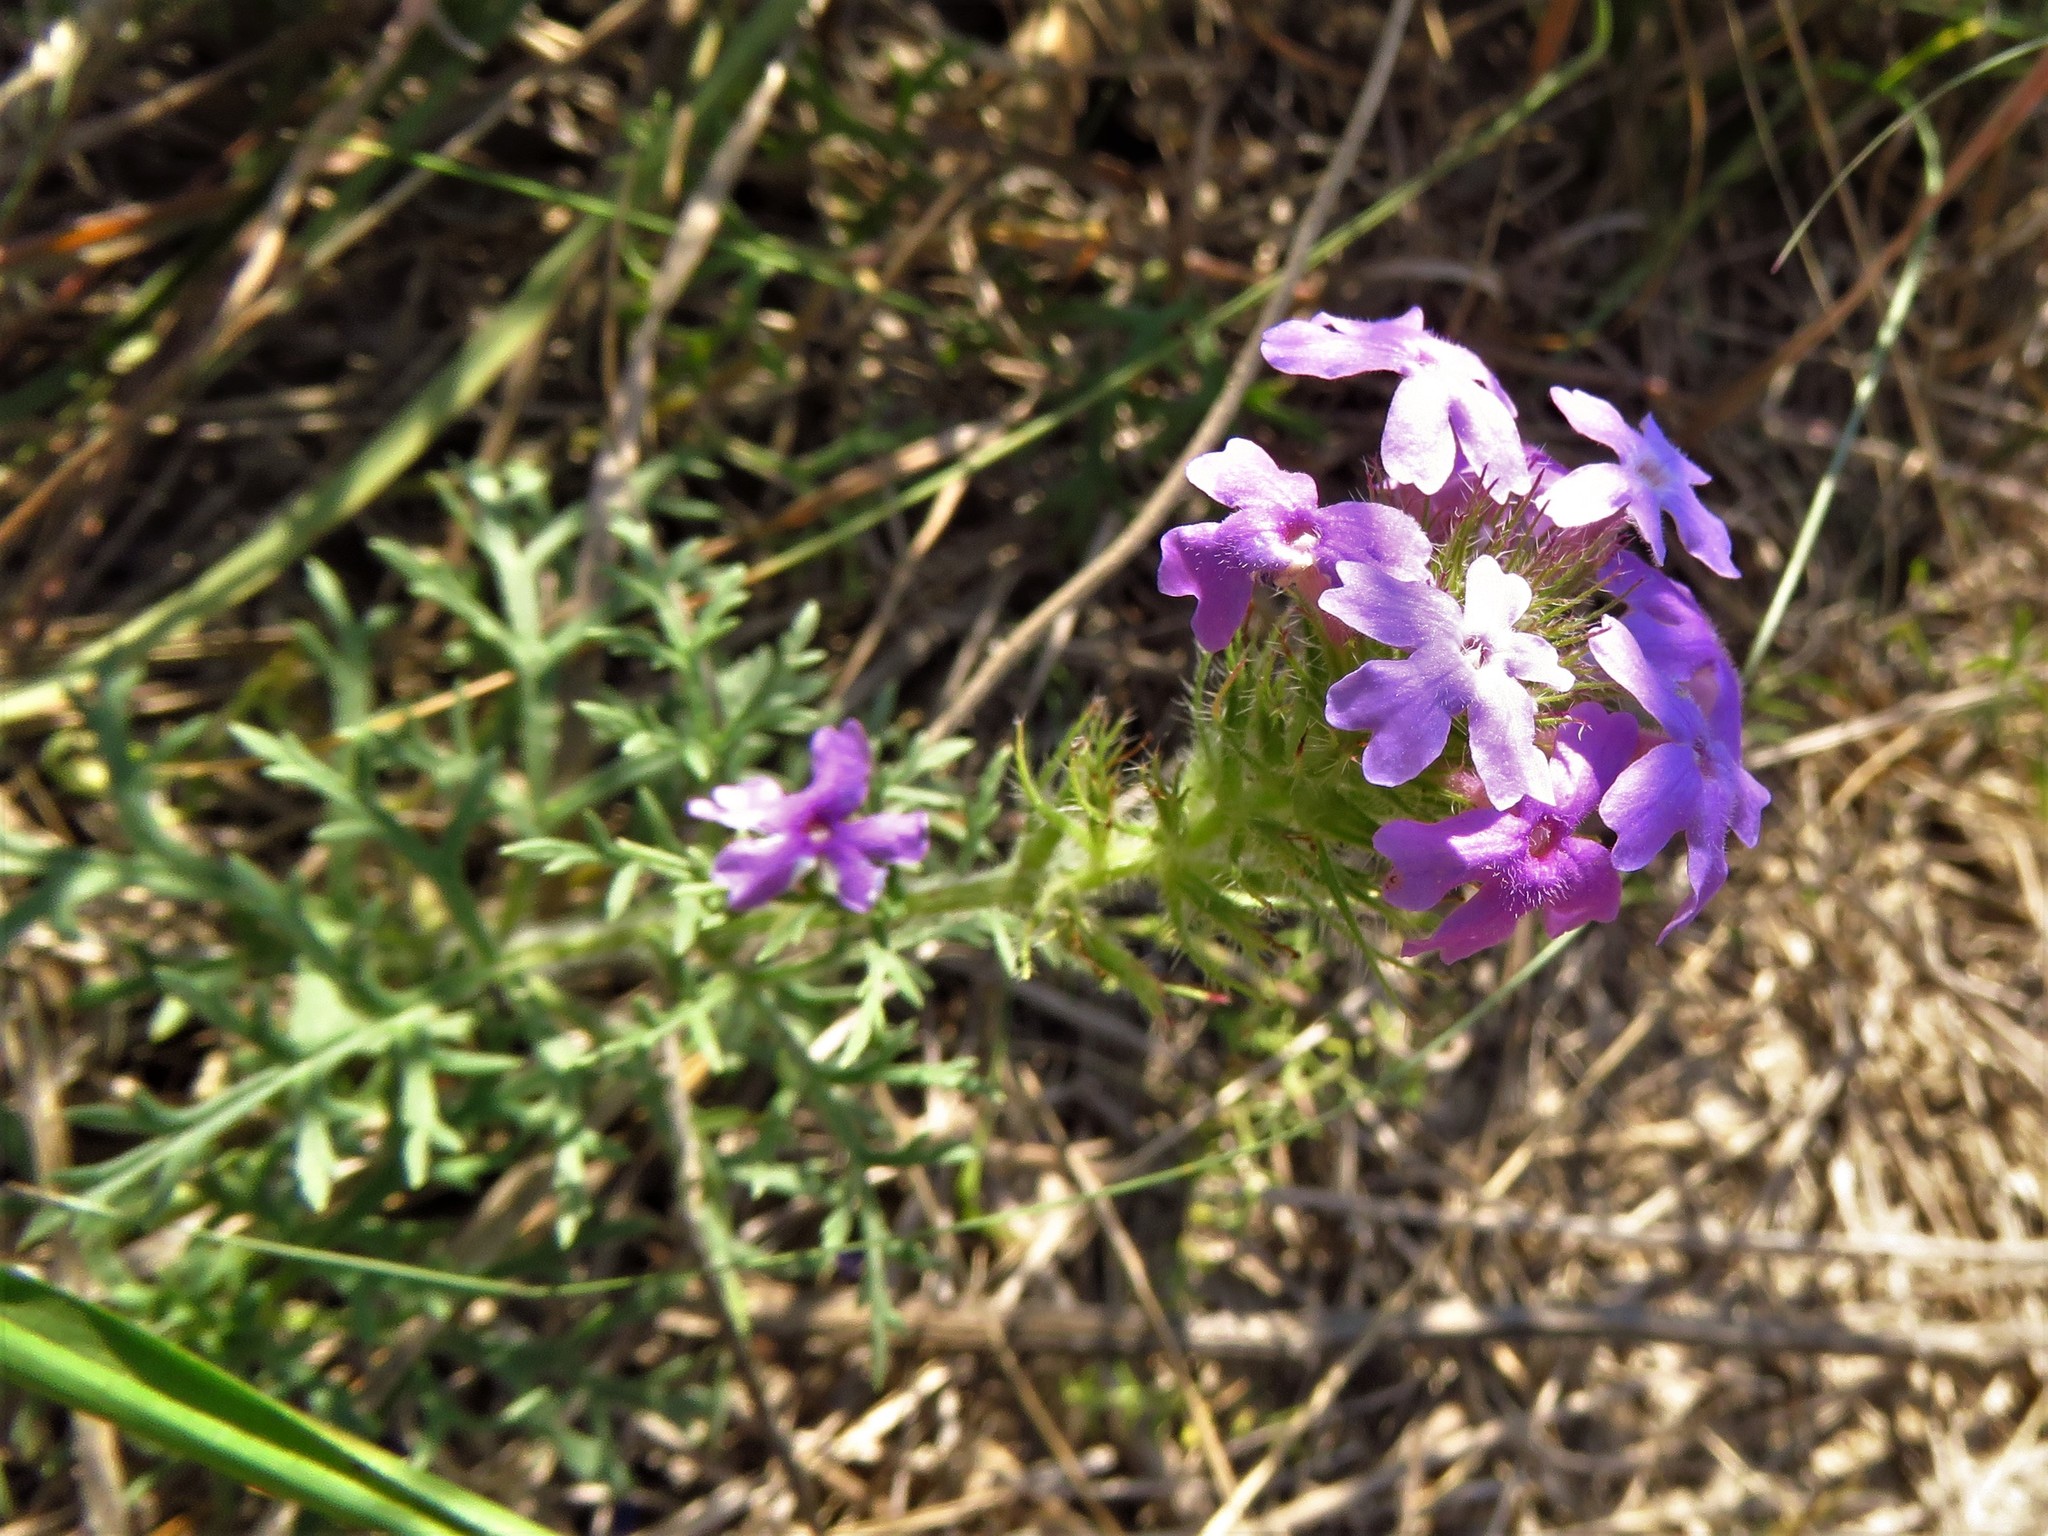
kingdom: Plantae
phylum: Tracheophyta
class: Magnoliopsida
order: Lamiales
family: Verbenaceae
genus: Verbena
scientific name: Verbena bipinnatifida
